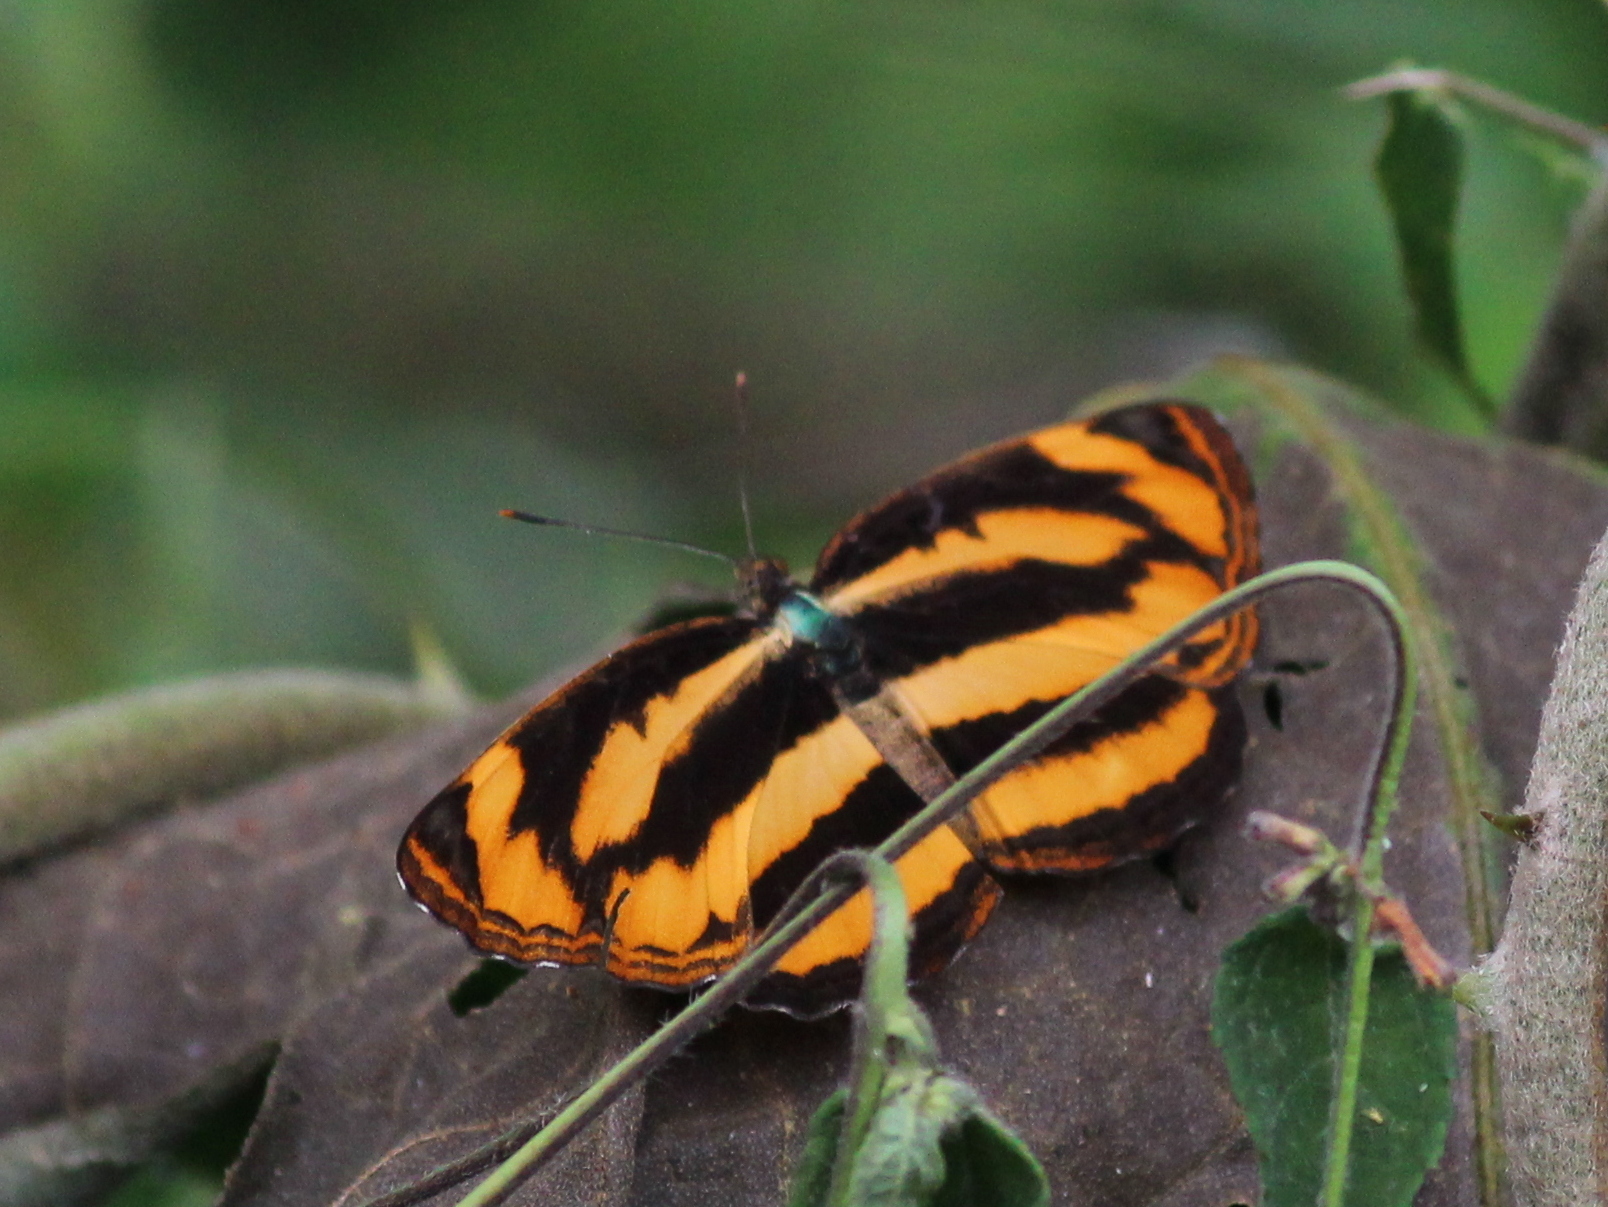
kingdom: Animalia
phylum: Arthropoda
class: Insecta
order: Lepidoptera
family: Nymphalidae
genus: Pantoporia
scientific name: Pantoporia hordonia
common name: Common lascar
